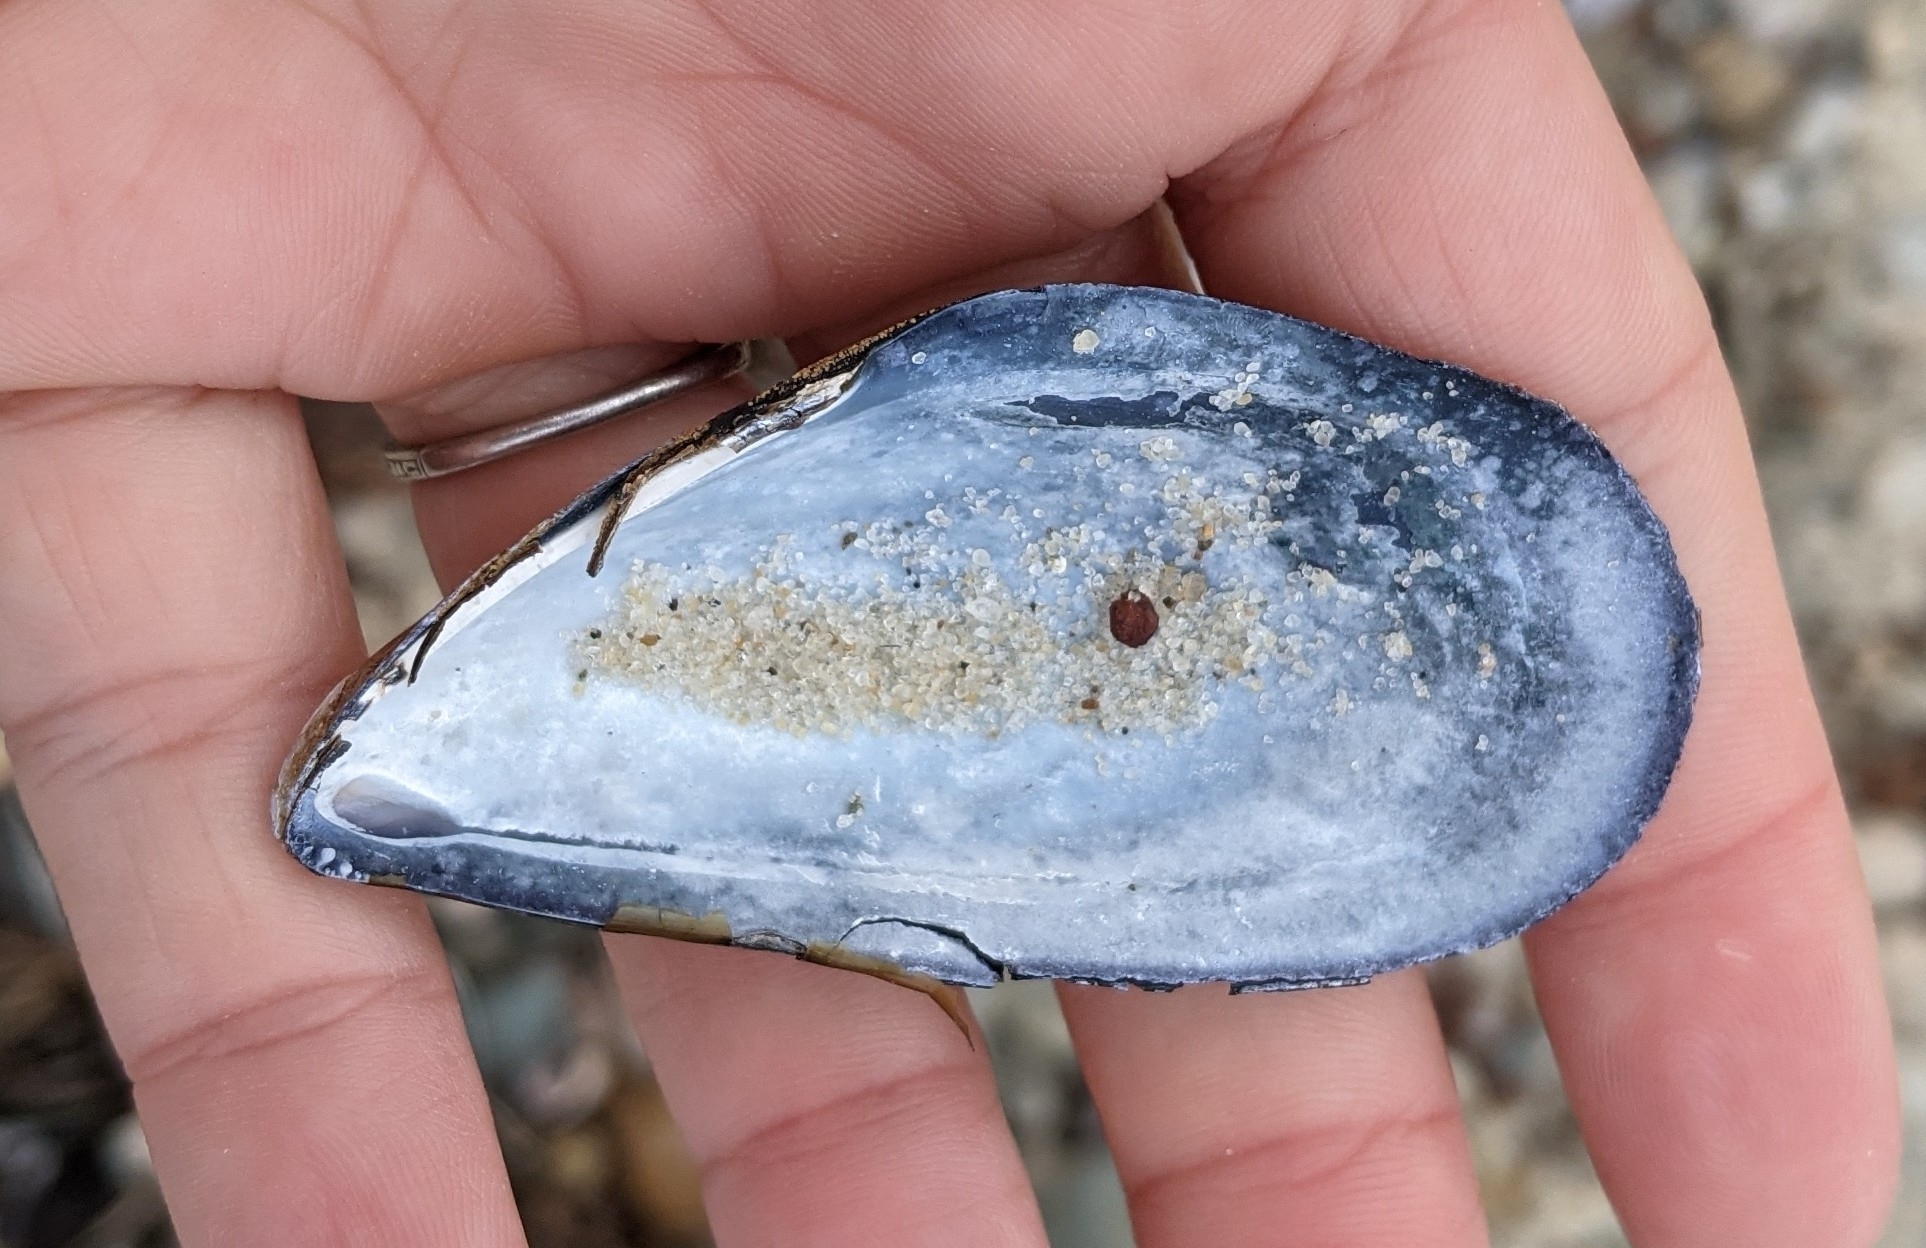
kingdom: Animalia
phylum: Mollusca
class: Bivalvia
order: Mytilida
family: Mytilidae
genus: Mytilus
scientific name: Mytilus edulis
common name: Blue mussel
